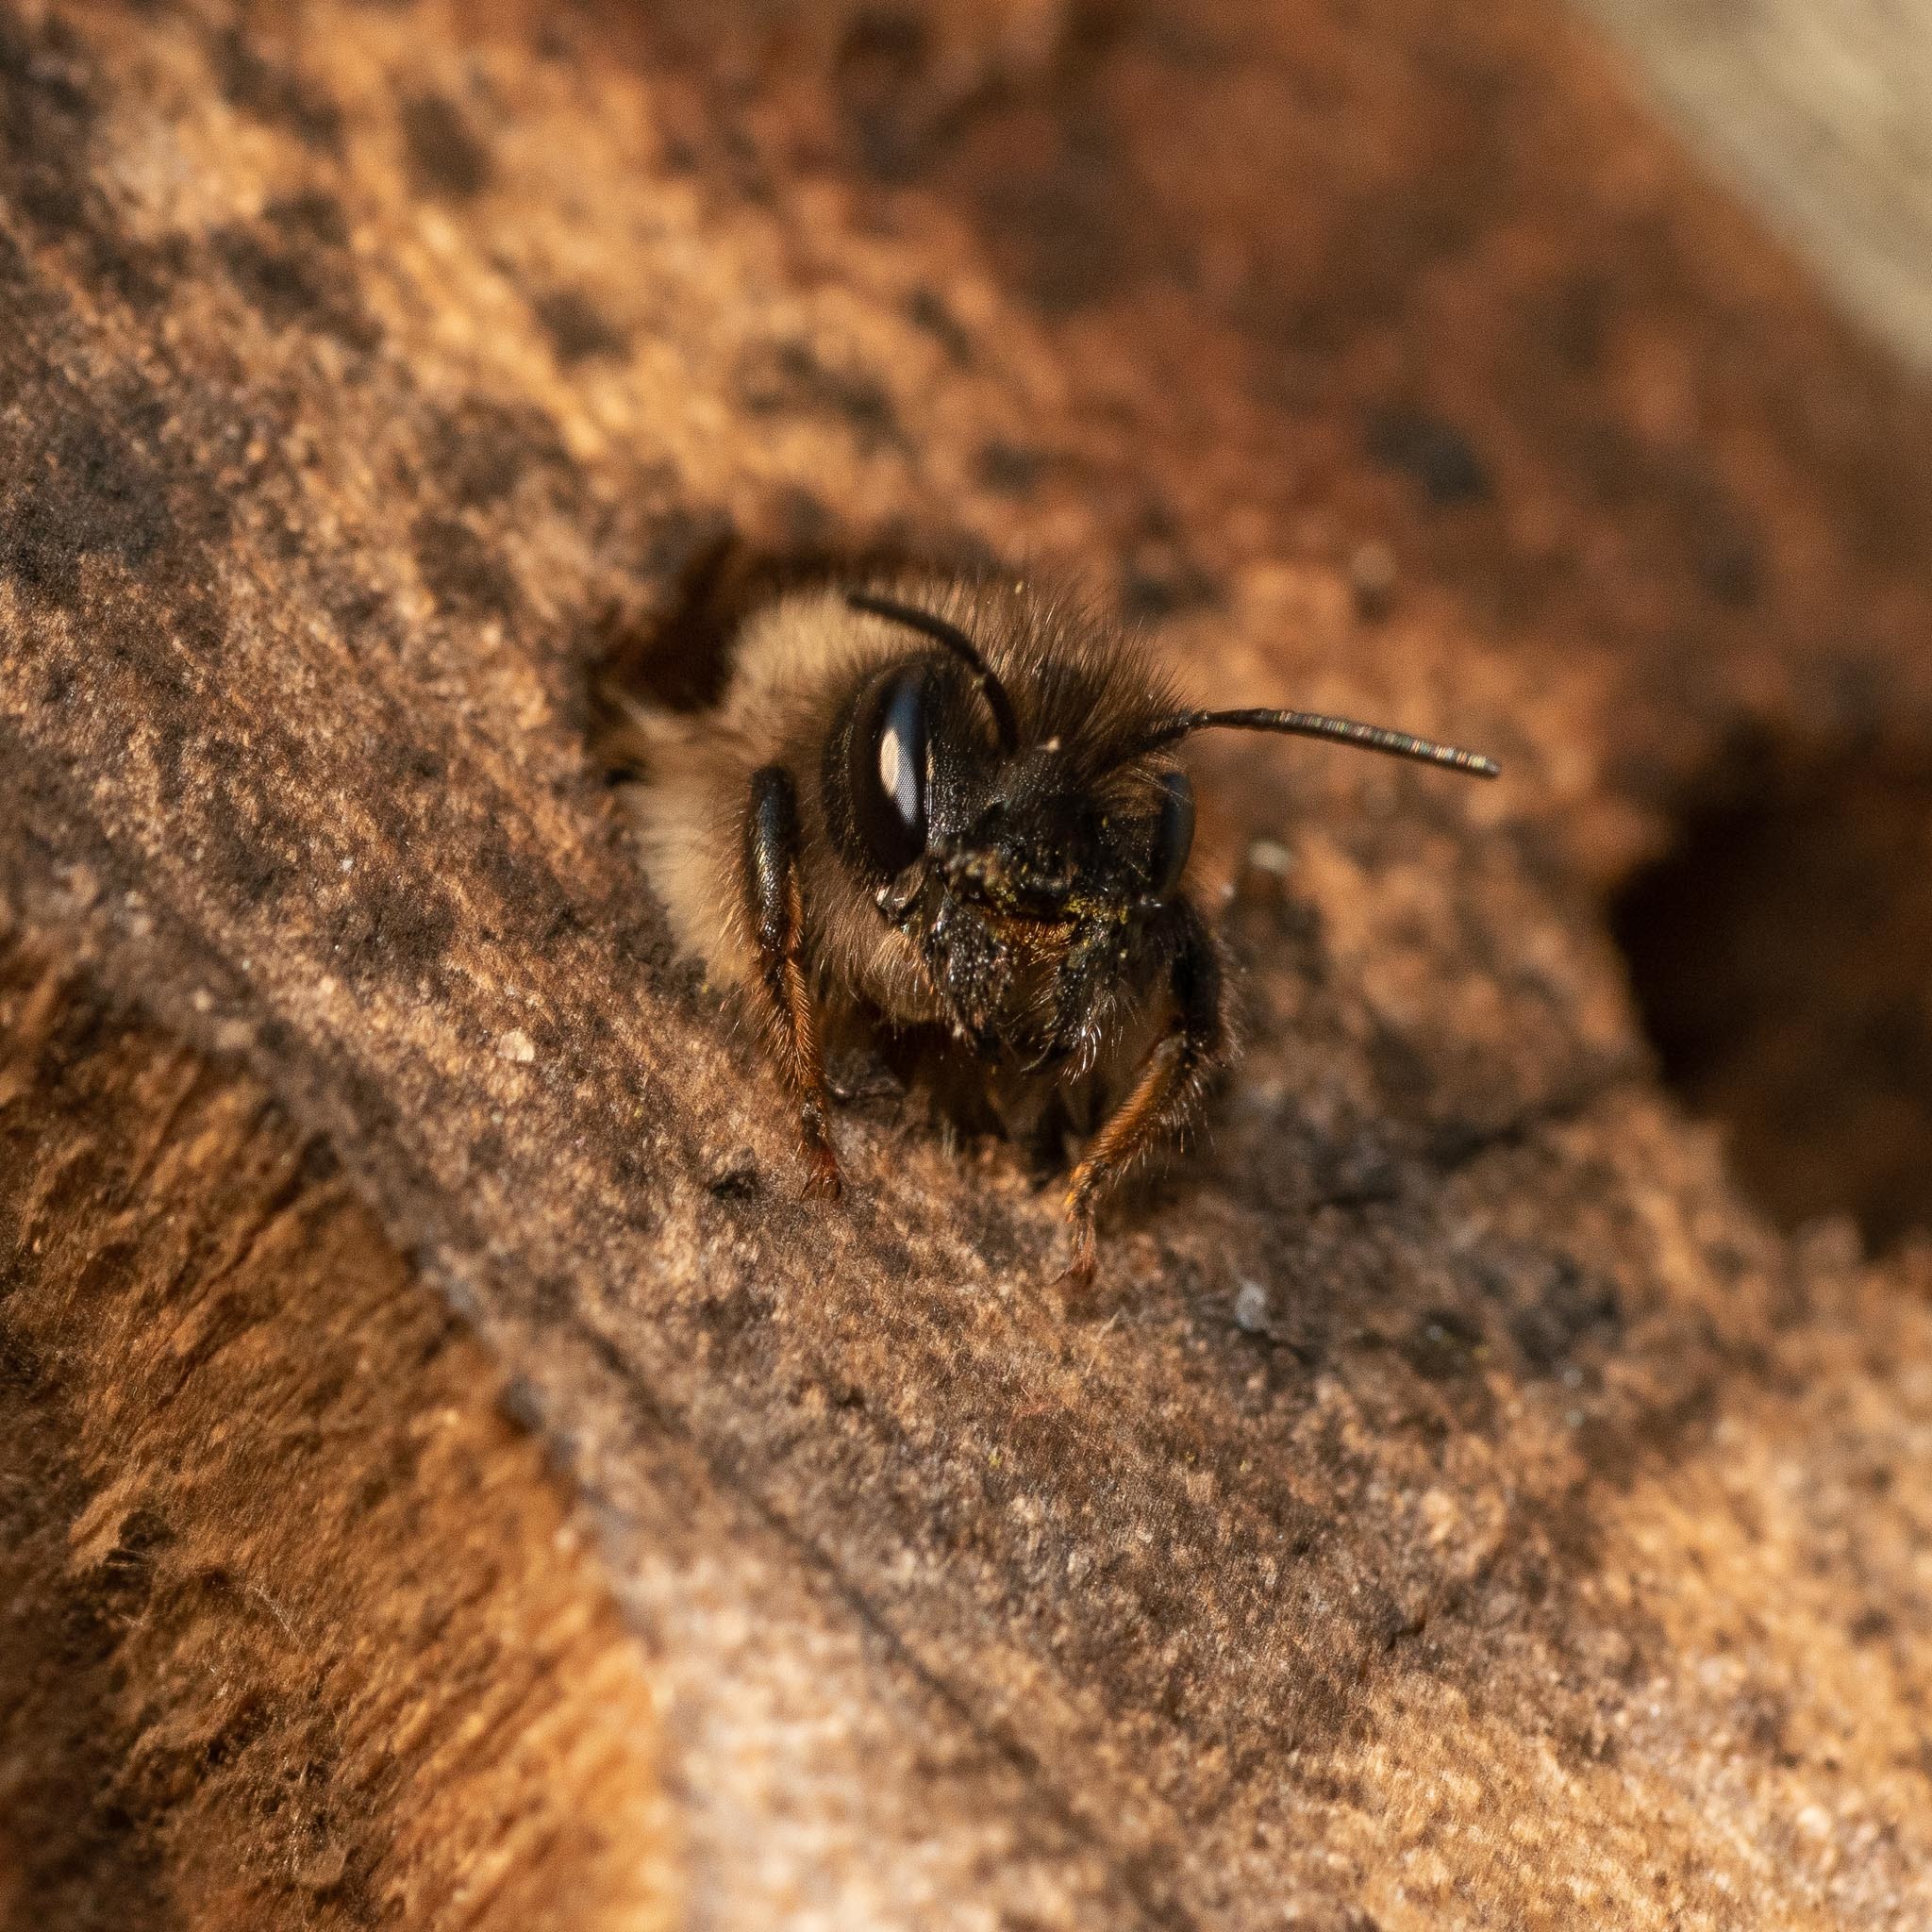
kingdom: Animalia
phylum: Arthropoda
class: Insecta
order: Hymenoptera
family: Megachilidae
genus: Osmia
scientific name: Osmia bicornis
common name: Red mason bee
